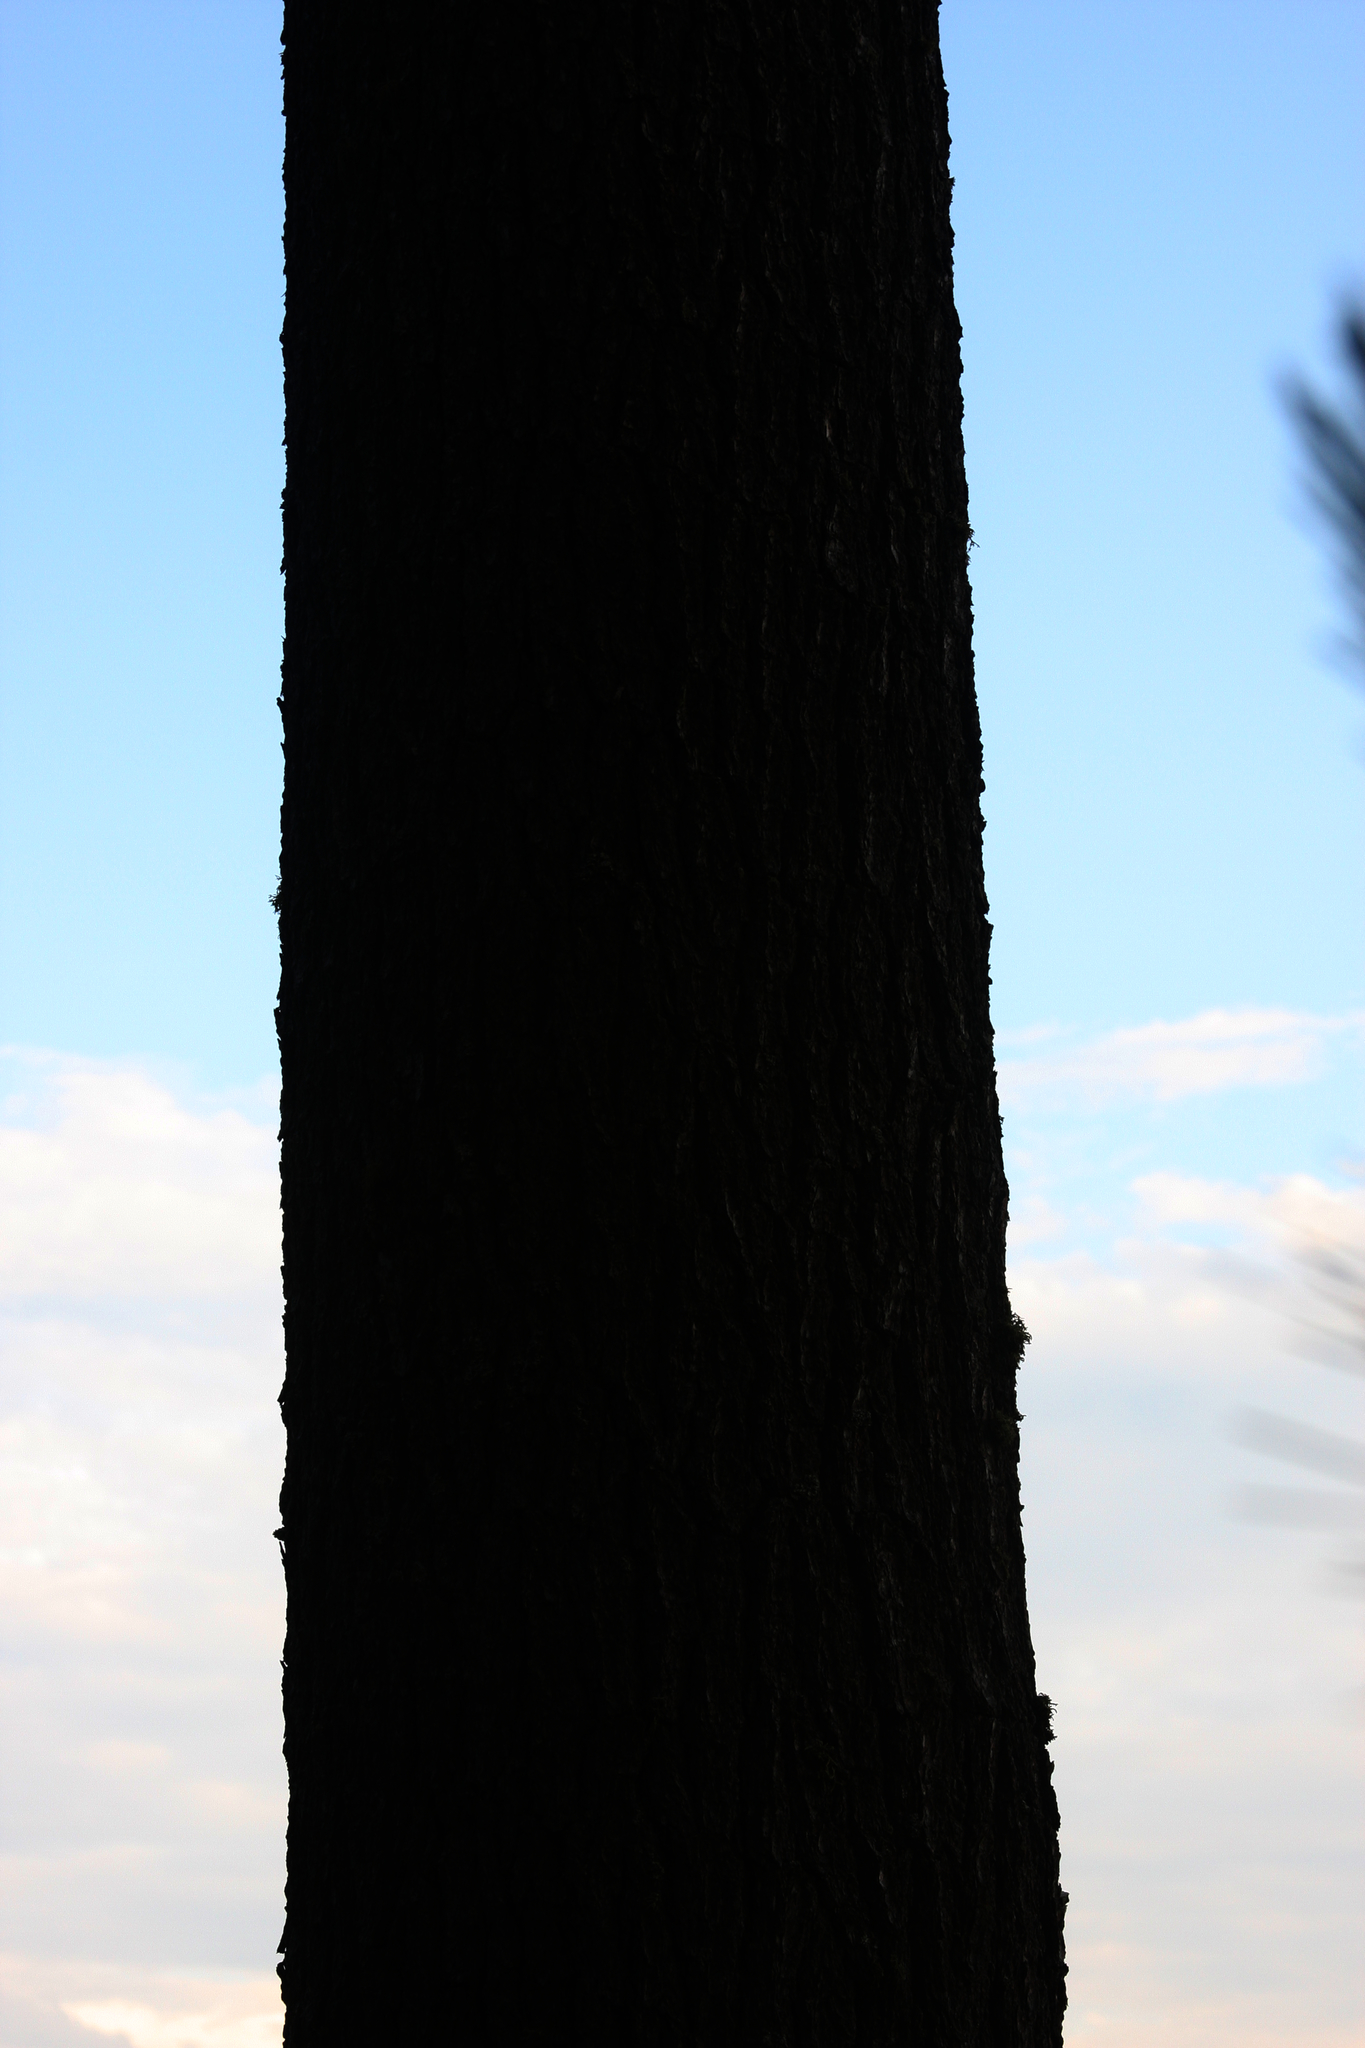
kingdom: Plantae
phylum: Tracheophyta
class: Pinopsida
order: Pinales
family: Pinaceae
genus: Pinus
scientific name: Pinus strobus
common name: Weymouth pine
